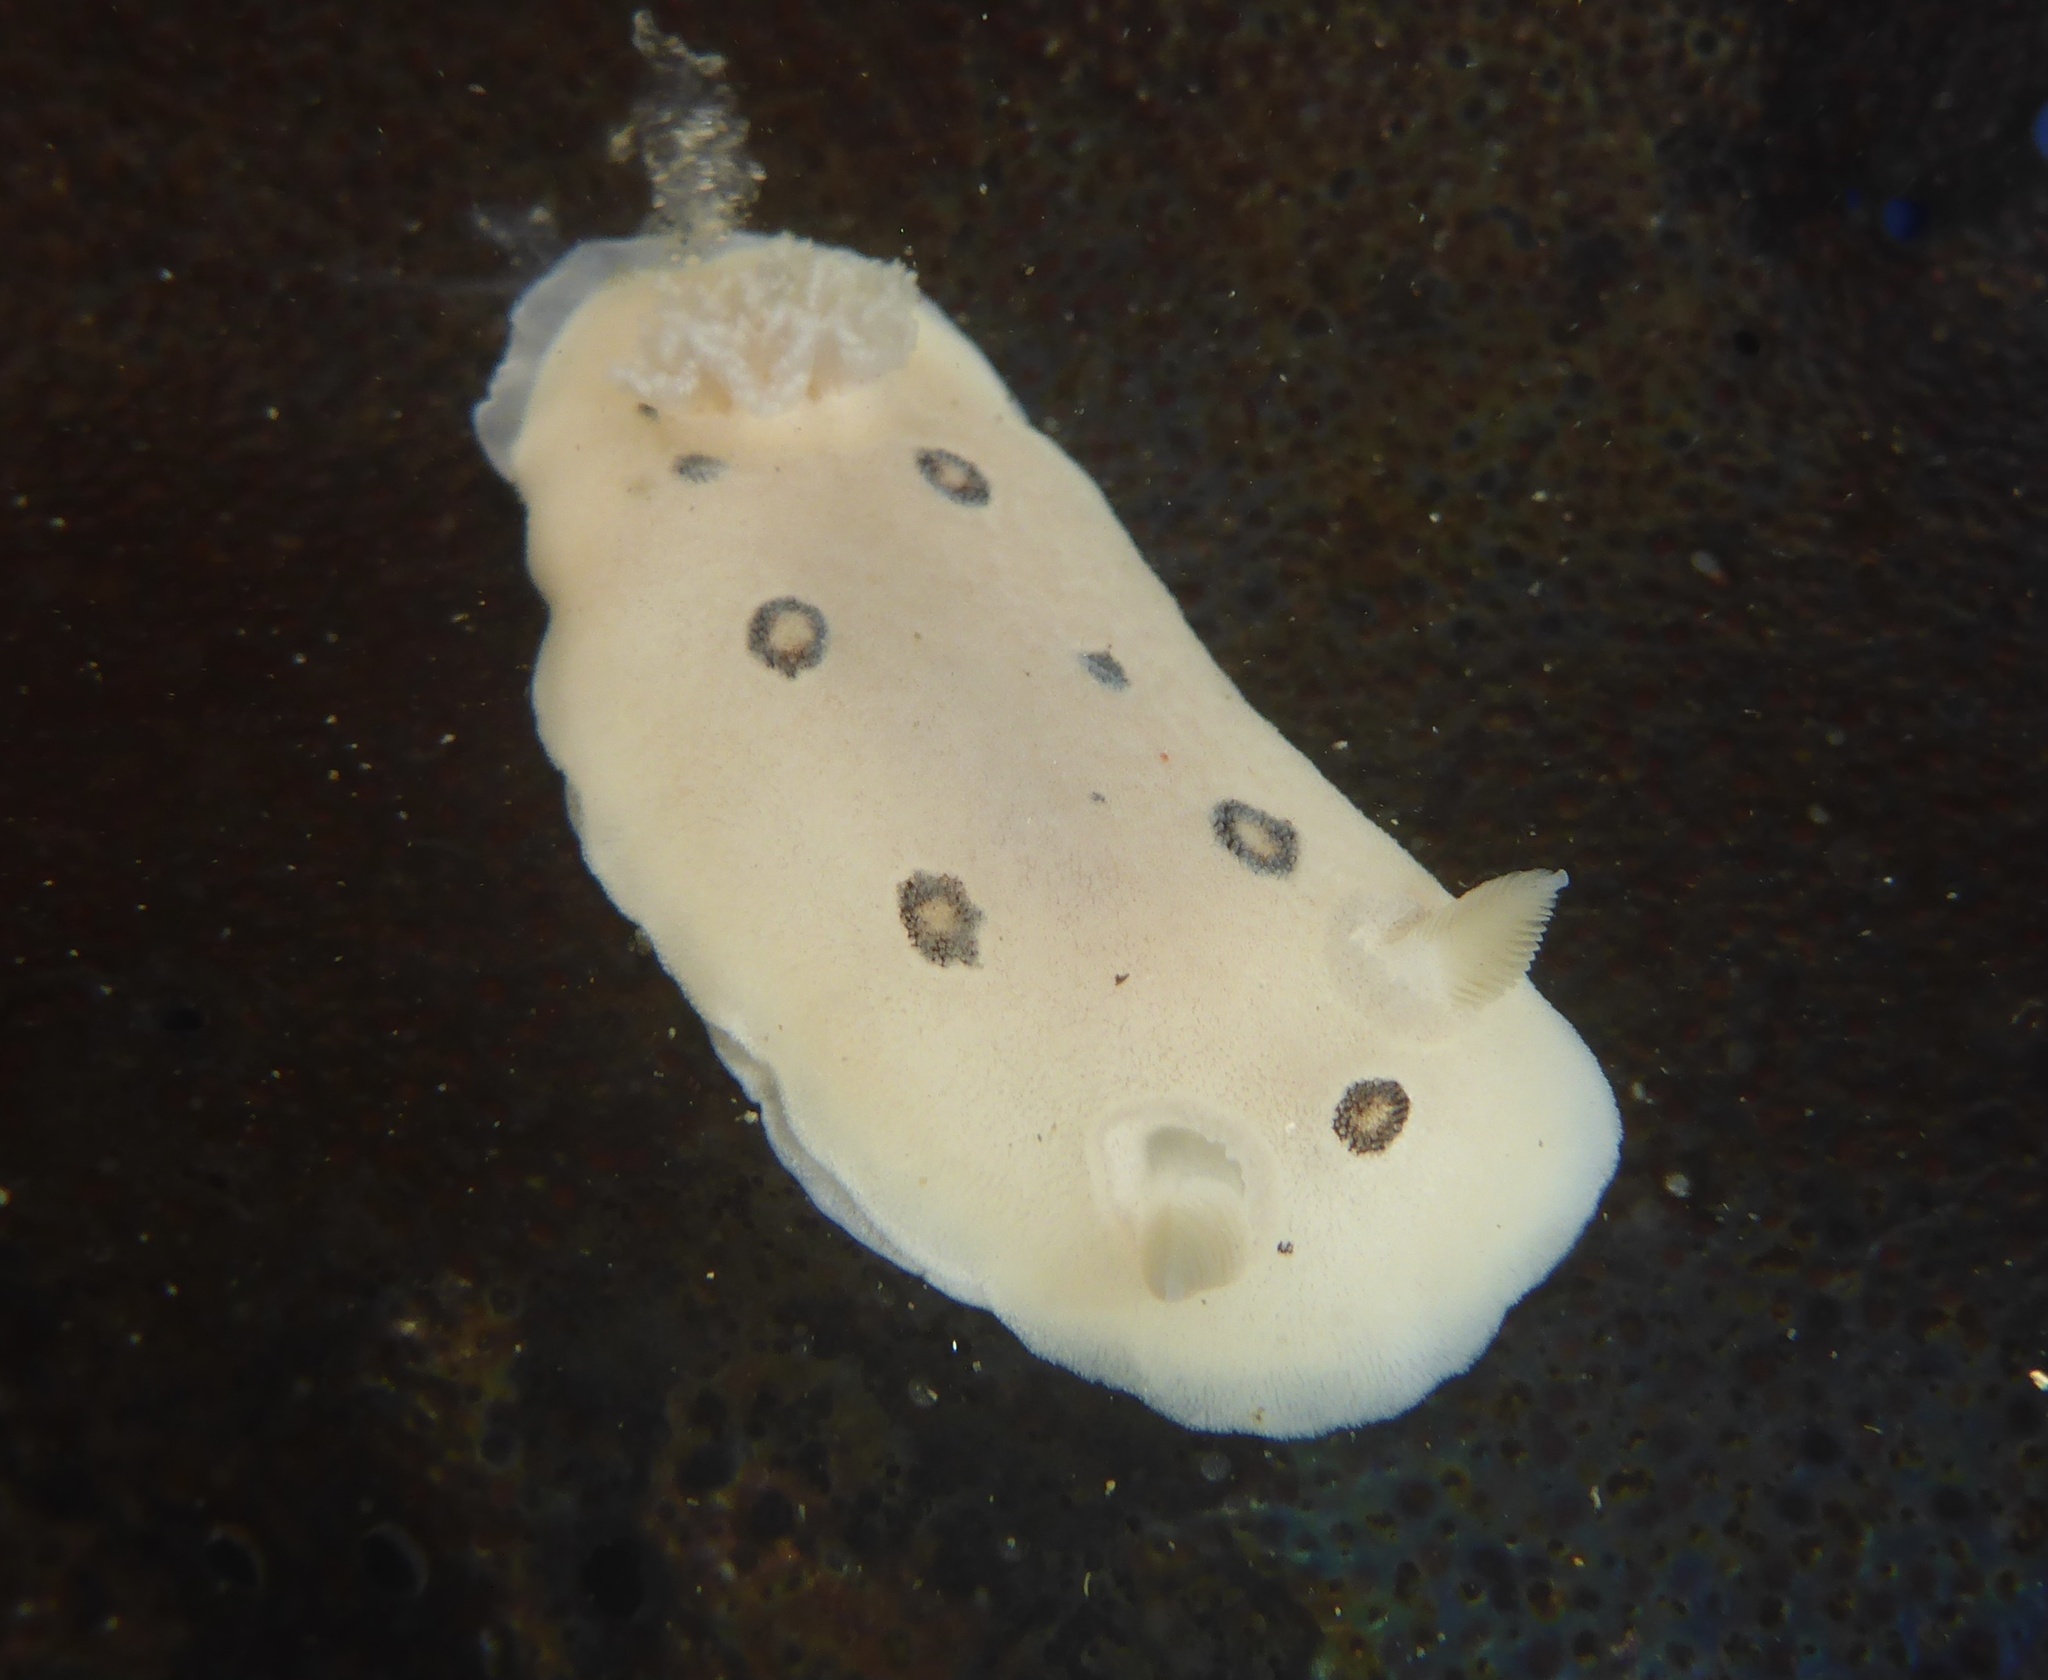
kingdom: Animalia
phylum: Mollusca
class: Gastropoda
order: Nudibranchia
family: Discodorididae
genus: Diaulula
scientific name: Diaulula sandiegensis
